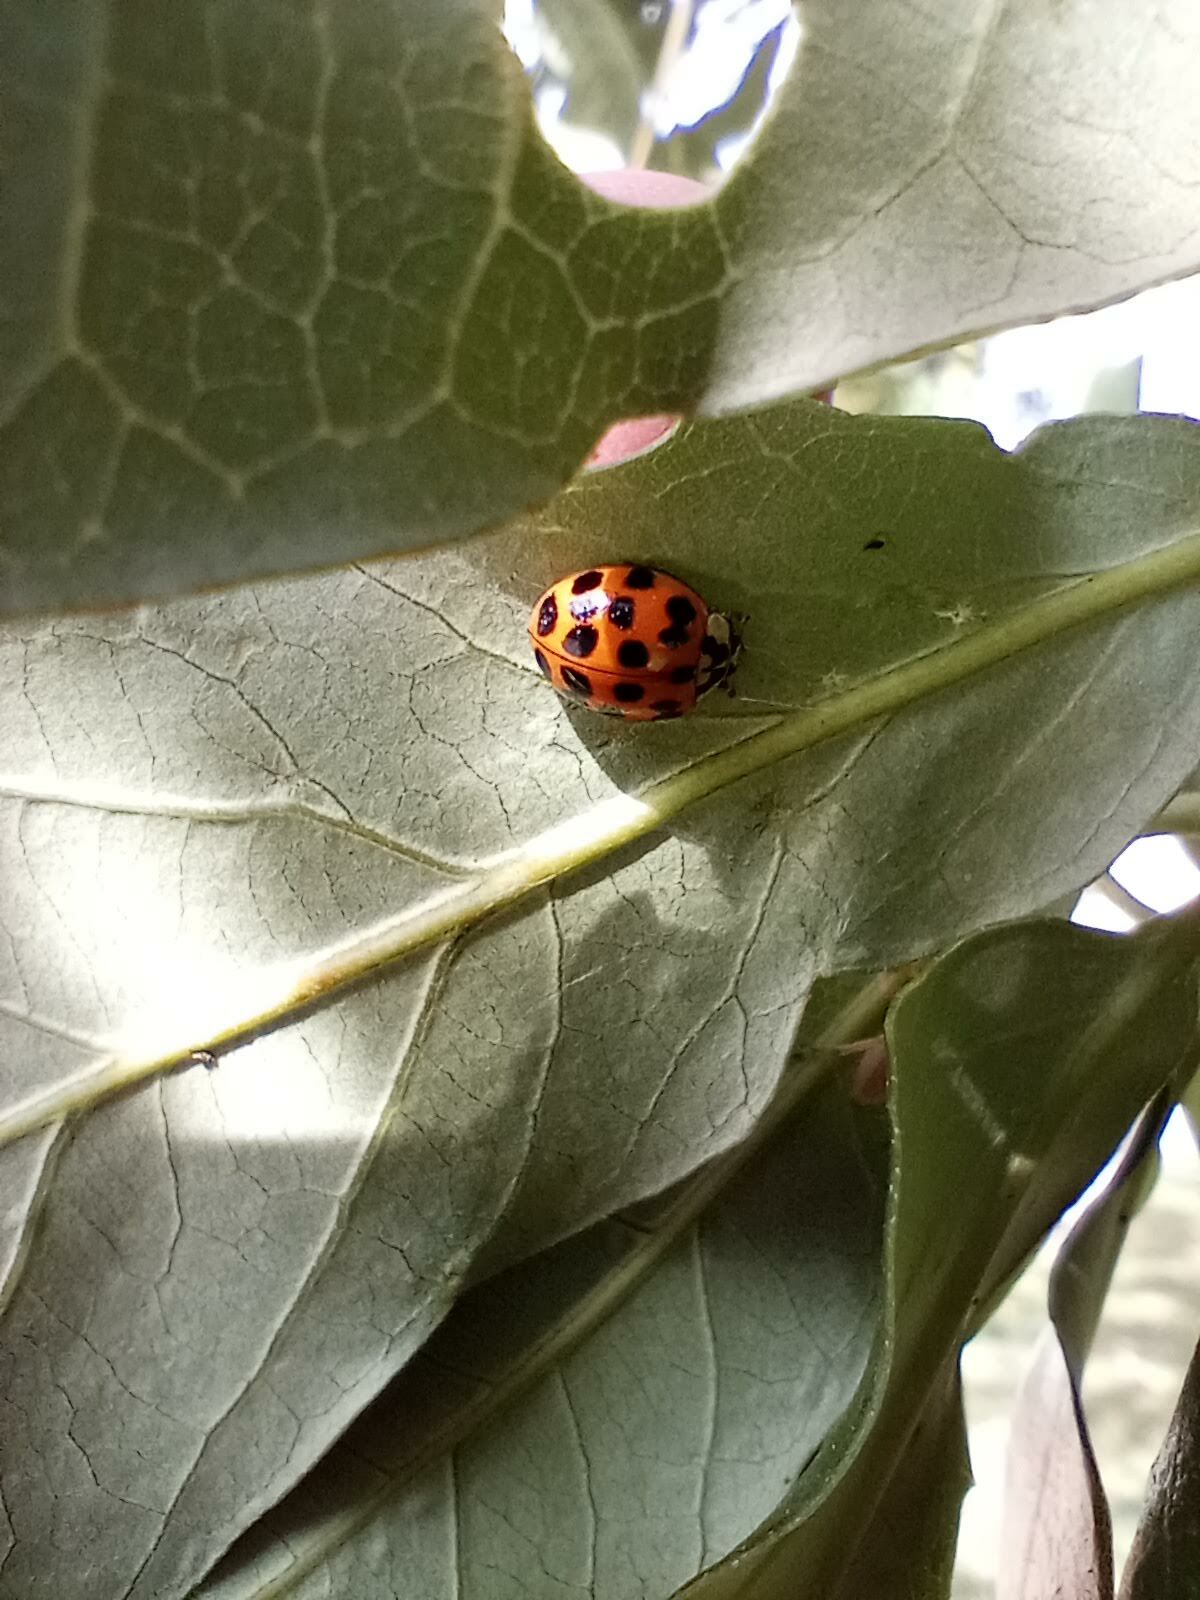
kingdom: Animalia
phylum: Arthropoda
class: Insecta
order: Coleoptera
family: Coccinellidae
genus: Harmonia
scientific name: Harmonia axyridis
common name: Harlequin ladybird
